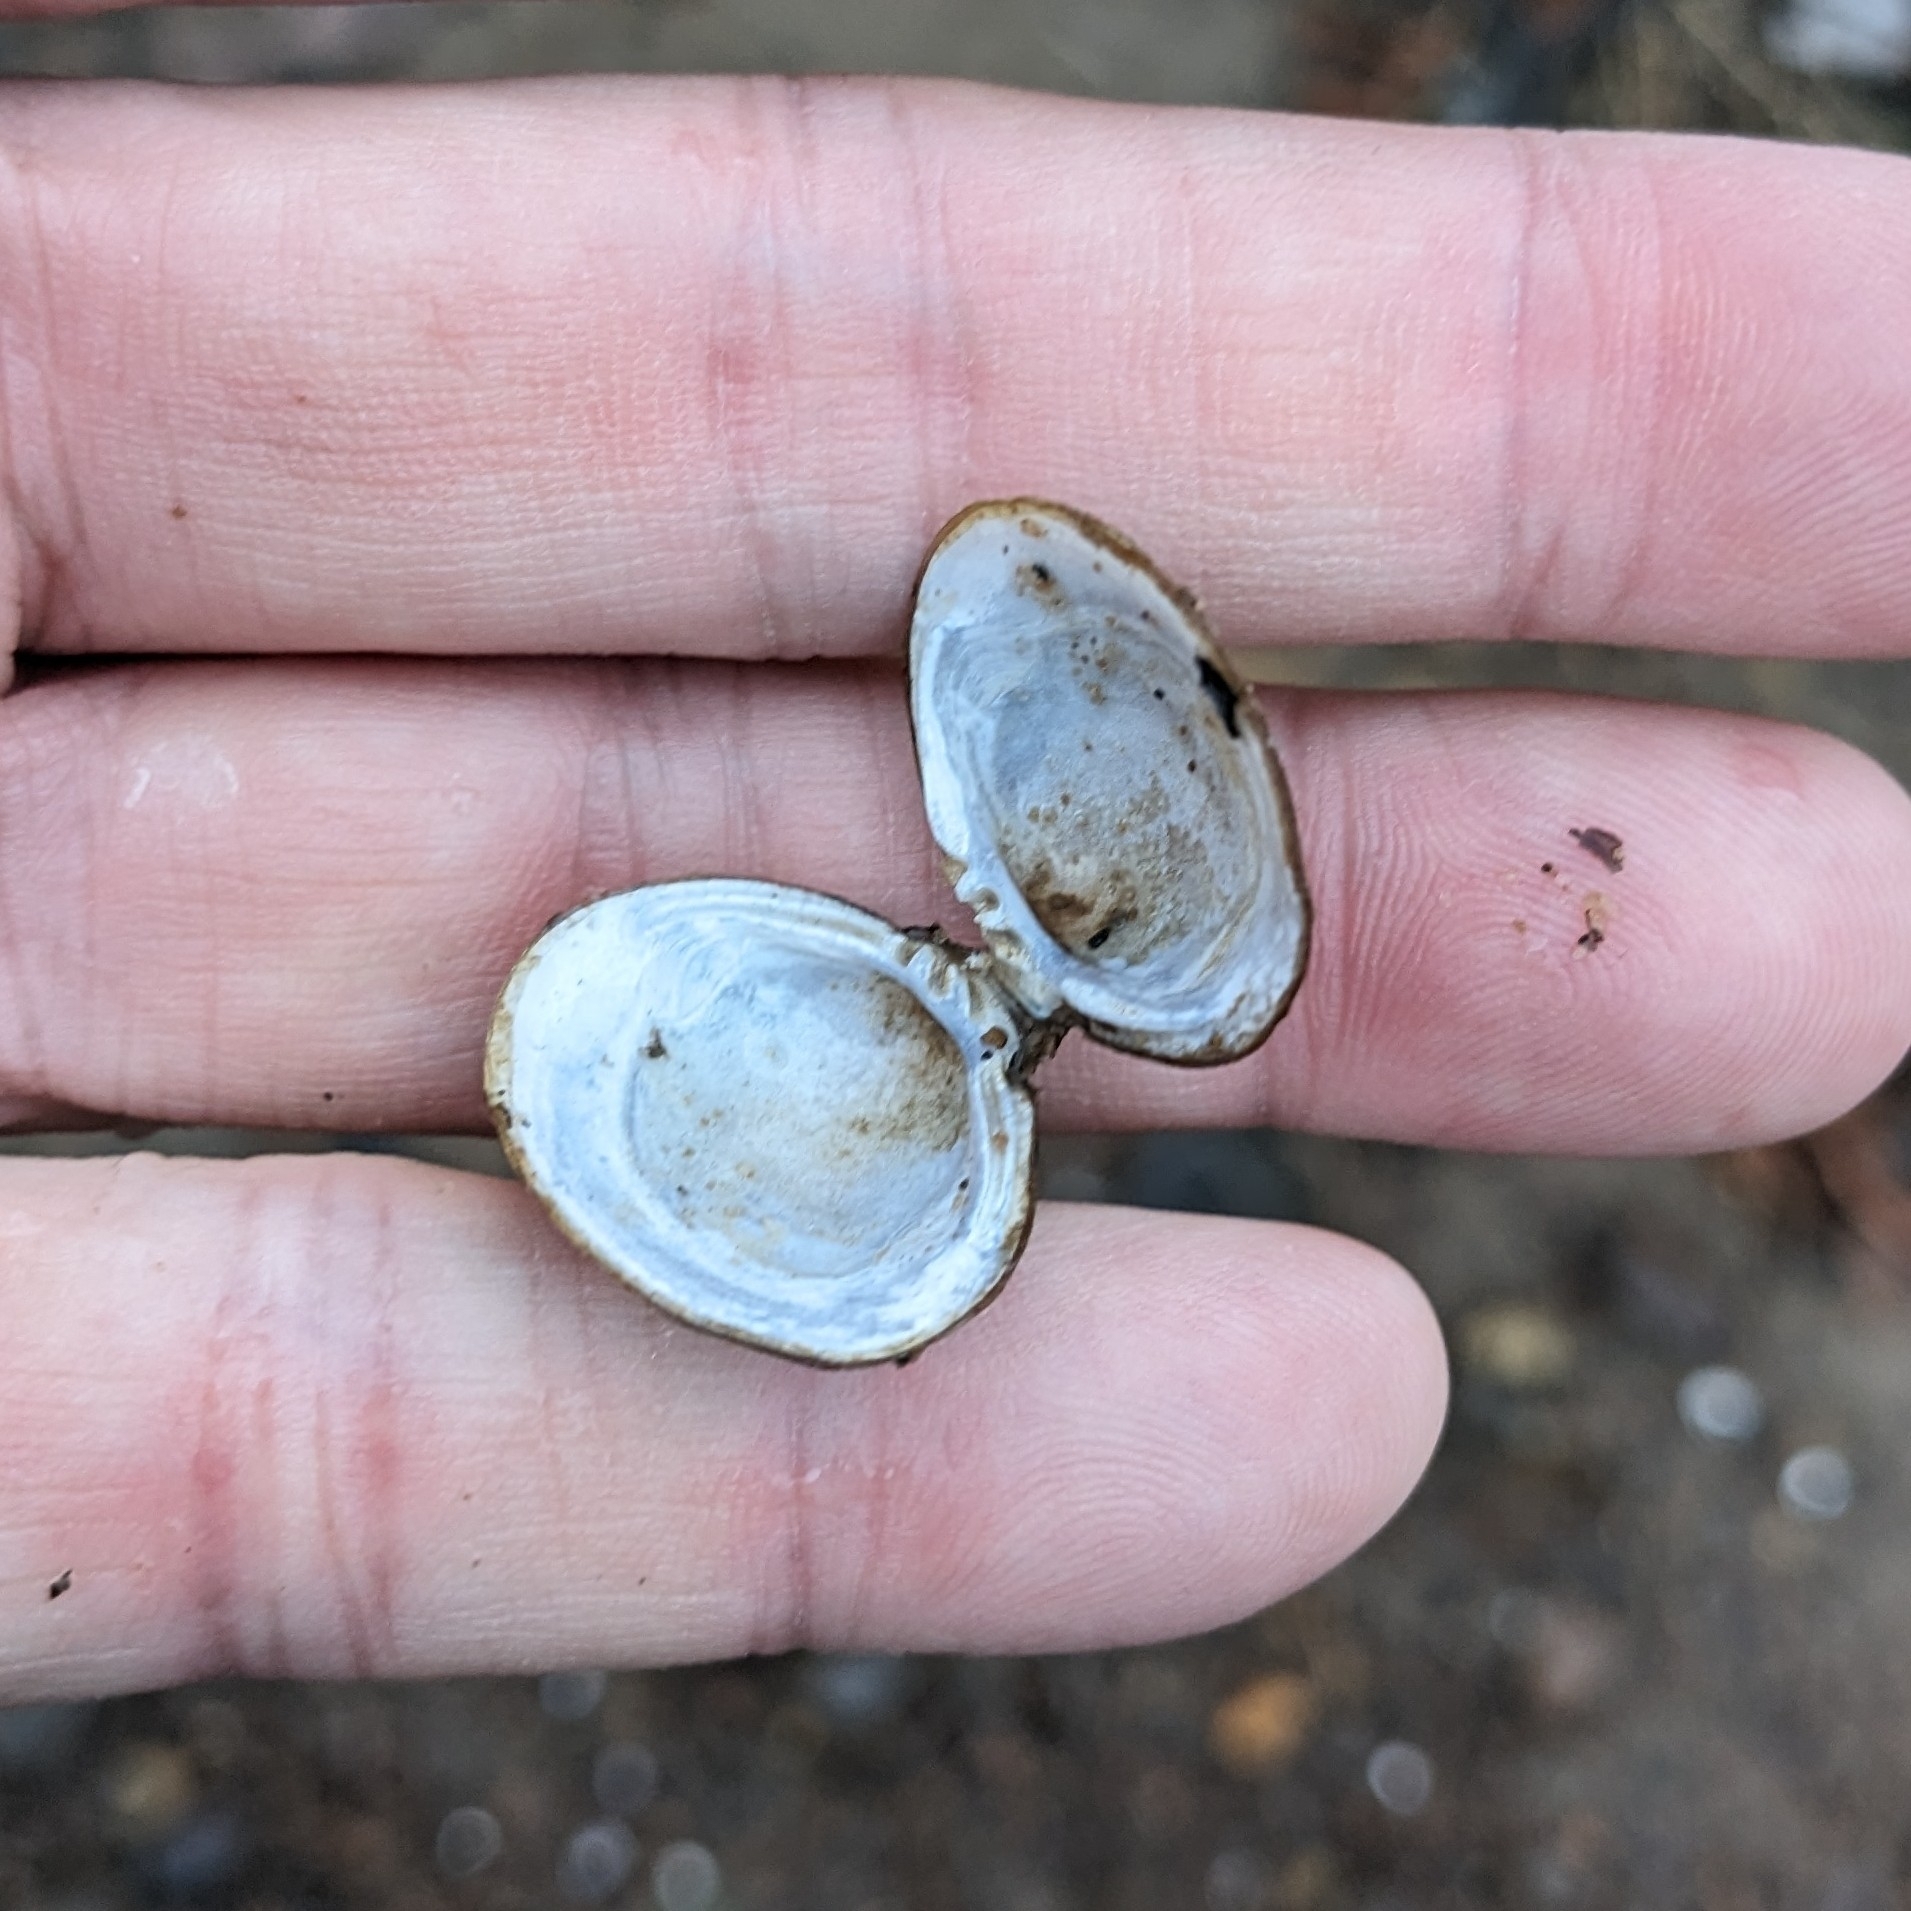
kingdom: Animalia
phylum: Mollusca
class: Bivalvia
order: Venerida
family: Cyrenidae
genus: Corbicula
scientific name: Corbicula fluminea
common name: Asian clam
